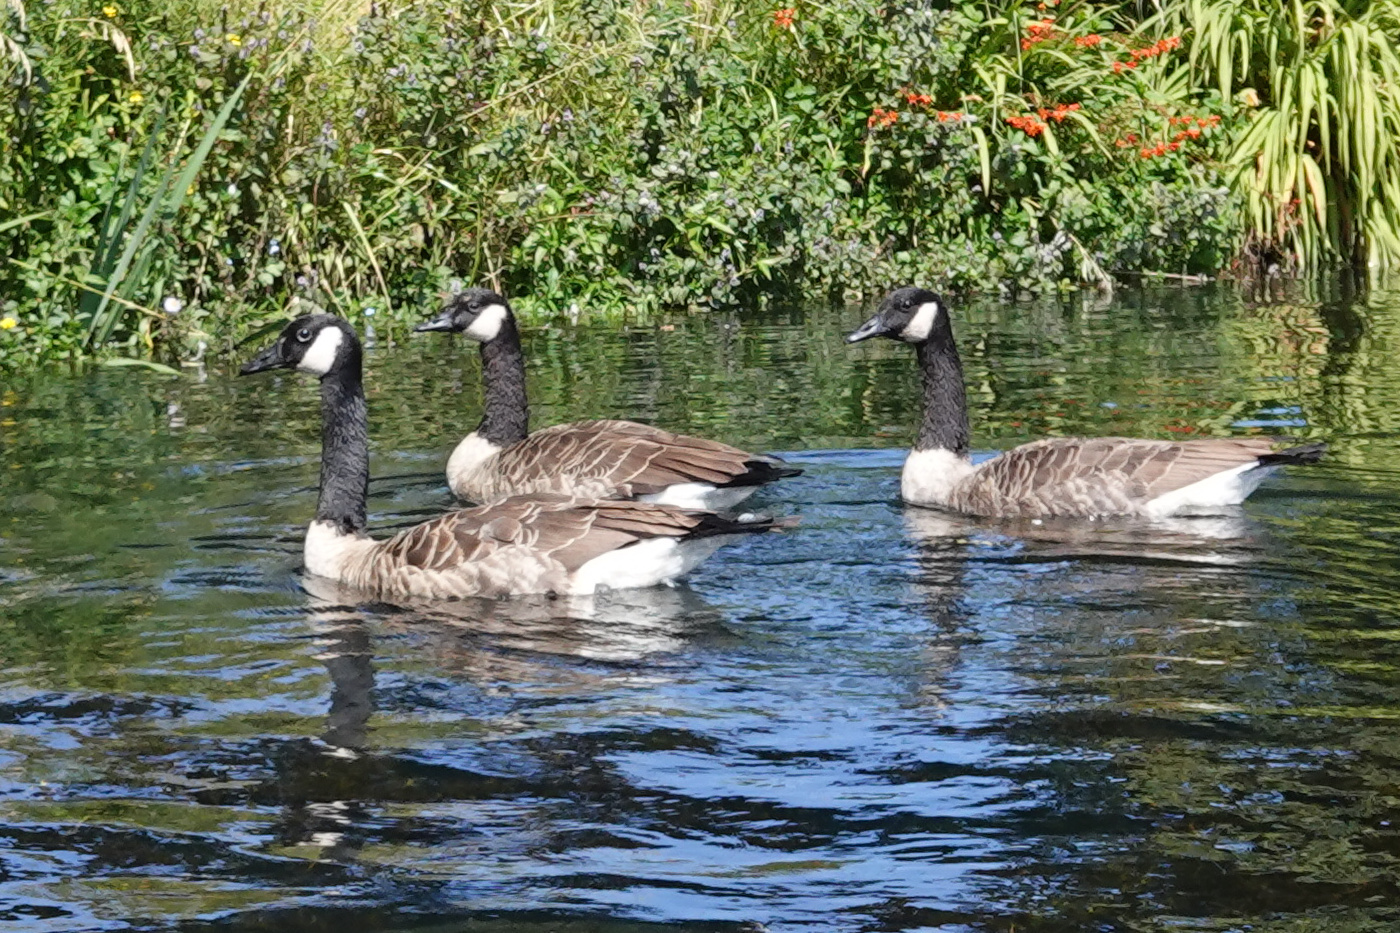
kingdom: Animalia
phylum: Chordata
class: Aves
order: Anseriformes
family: Anatidae
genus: Branta
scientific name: Branta canadensis
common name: Canada goose
